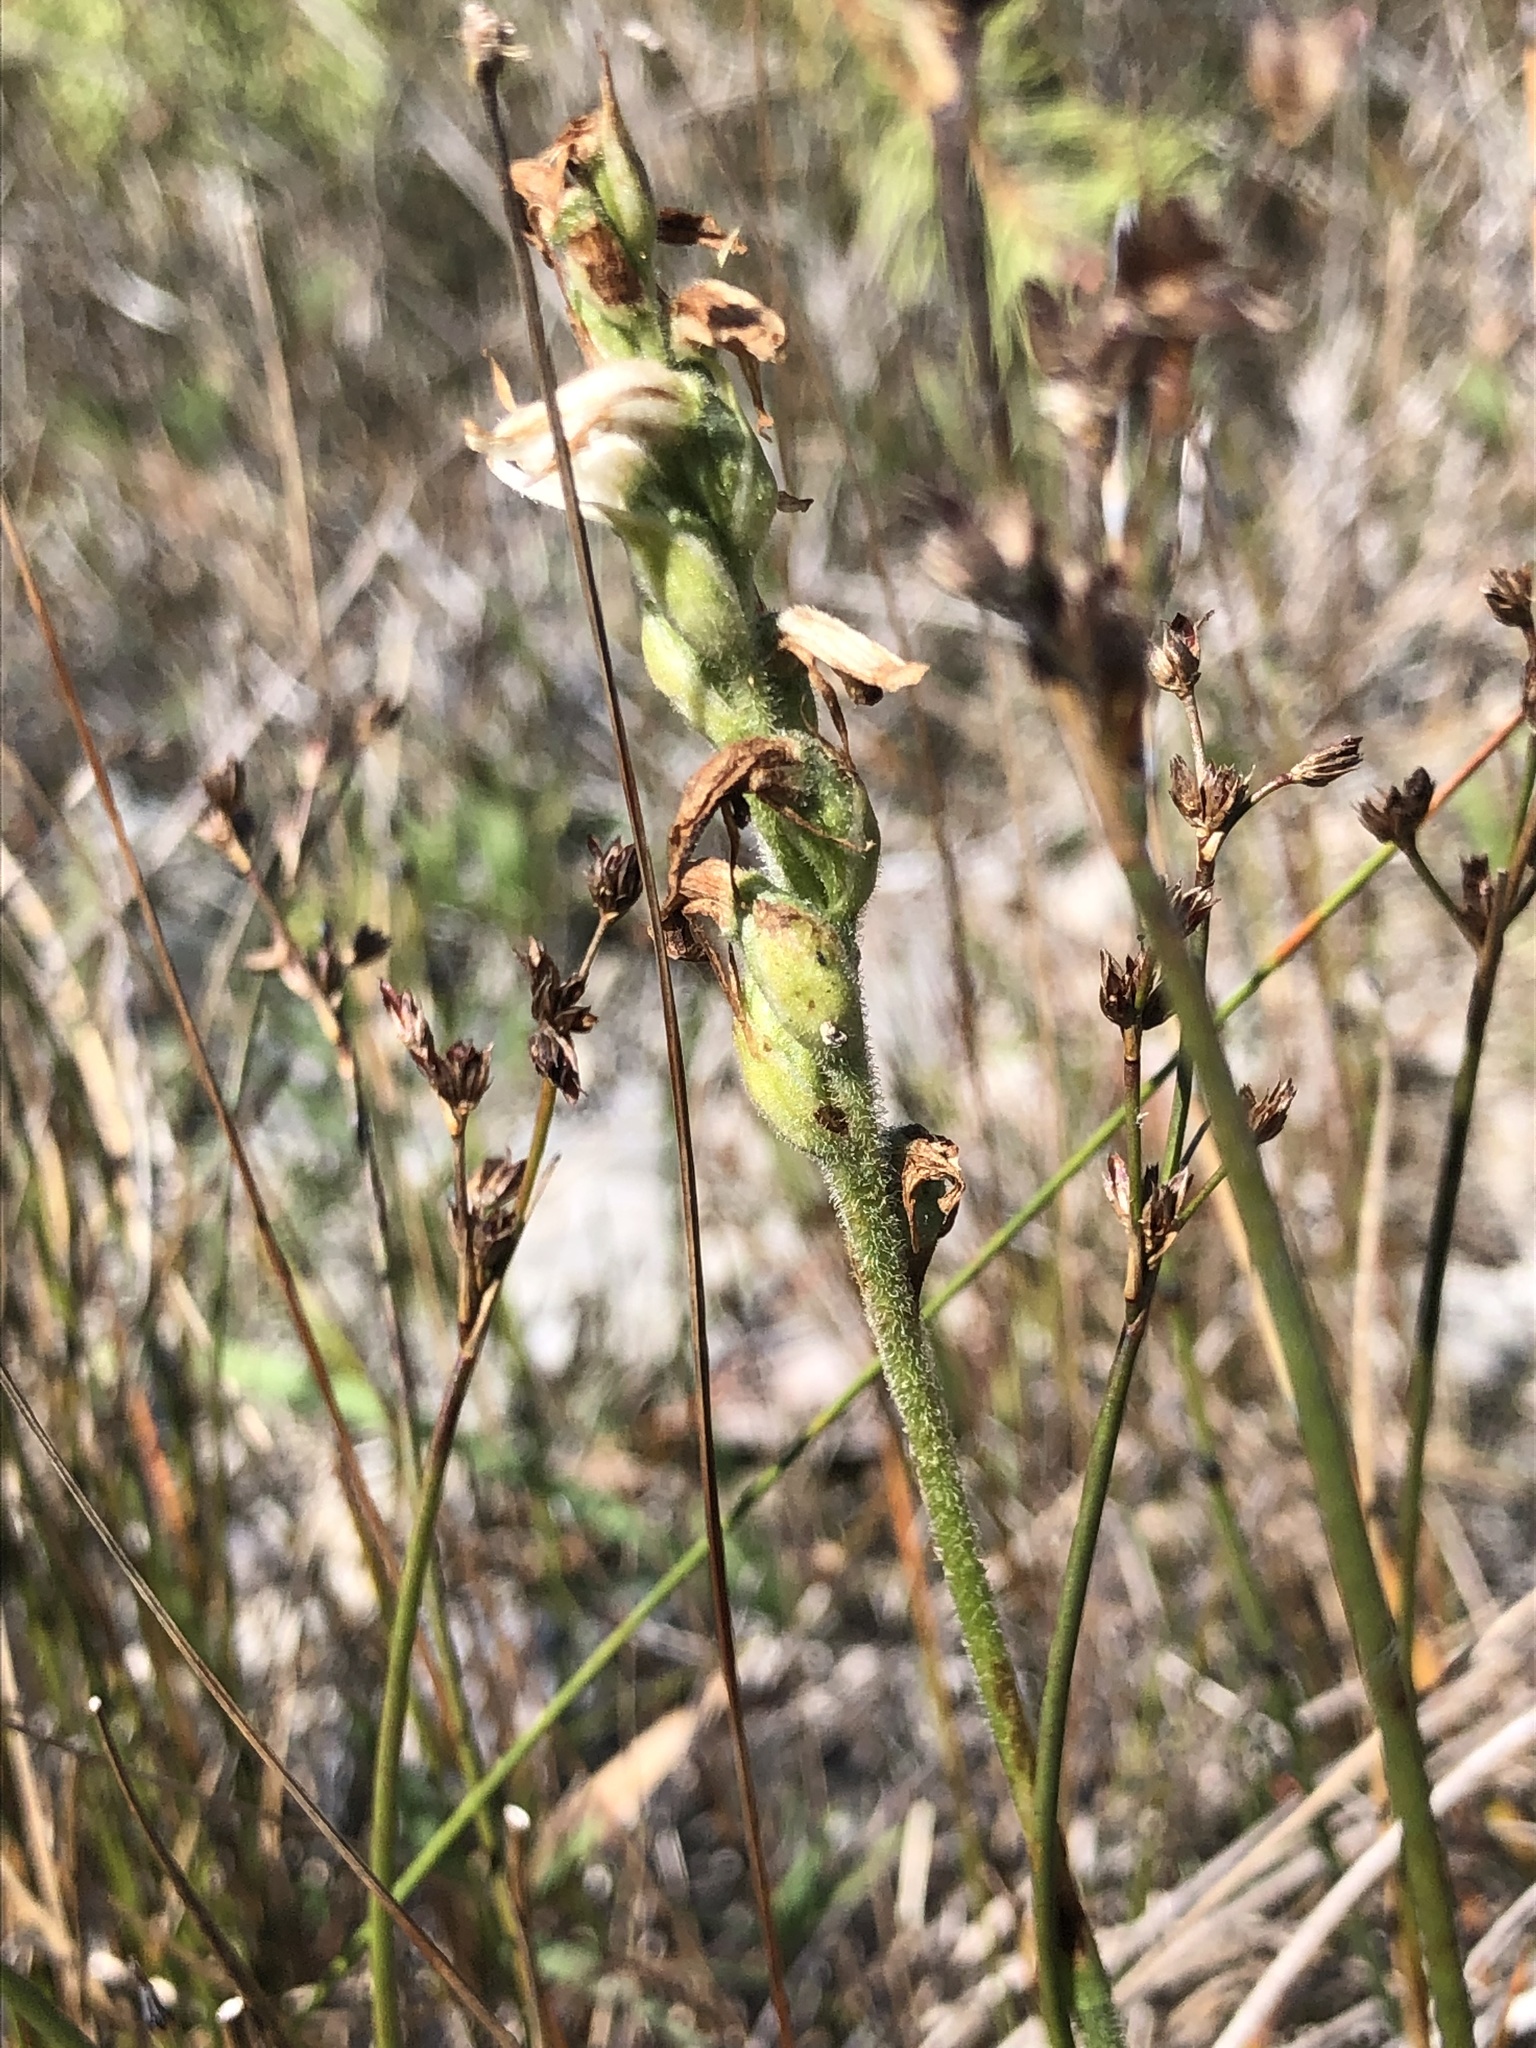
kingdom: Plantae
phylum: Tracheophyta
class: Liliopsida
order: Asparagales
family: Orchidaceae
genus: Spiranthes
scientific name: Spiranthes incurva
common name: Sphinx ladies'-tresses
